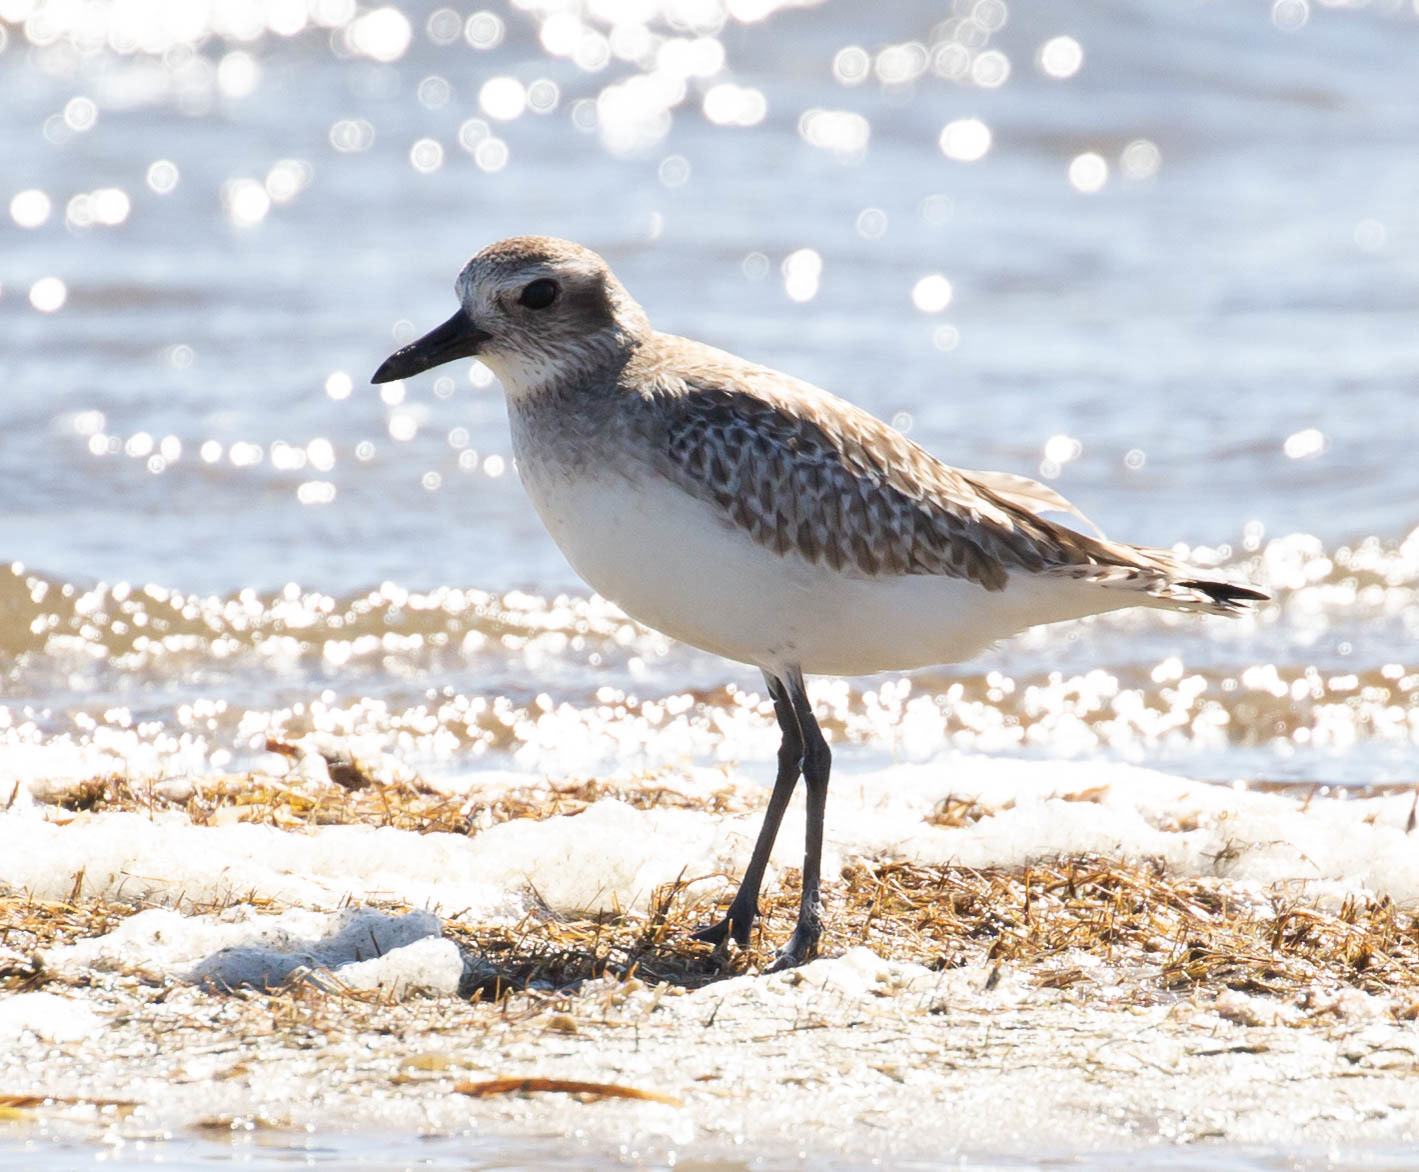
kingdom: Animalia
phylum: Chordata
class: Aves
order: Charadriiformes
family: Charadriidae
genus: Pluvialis
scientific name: Pluvialis squatarola
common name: Grey plover
